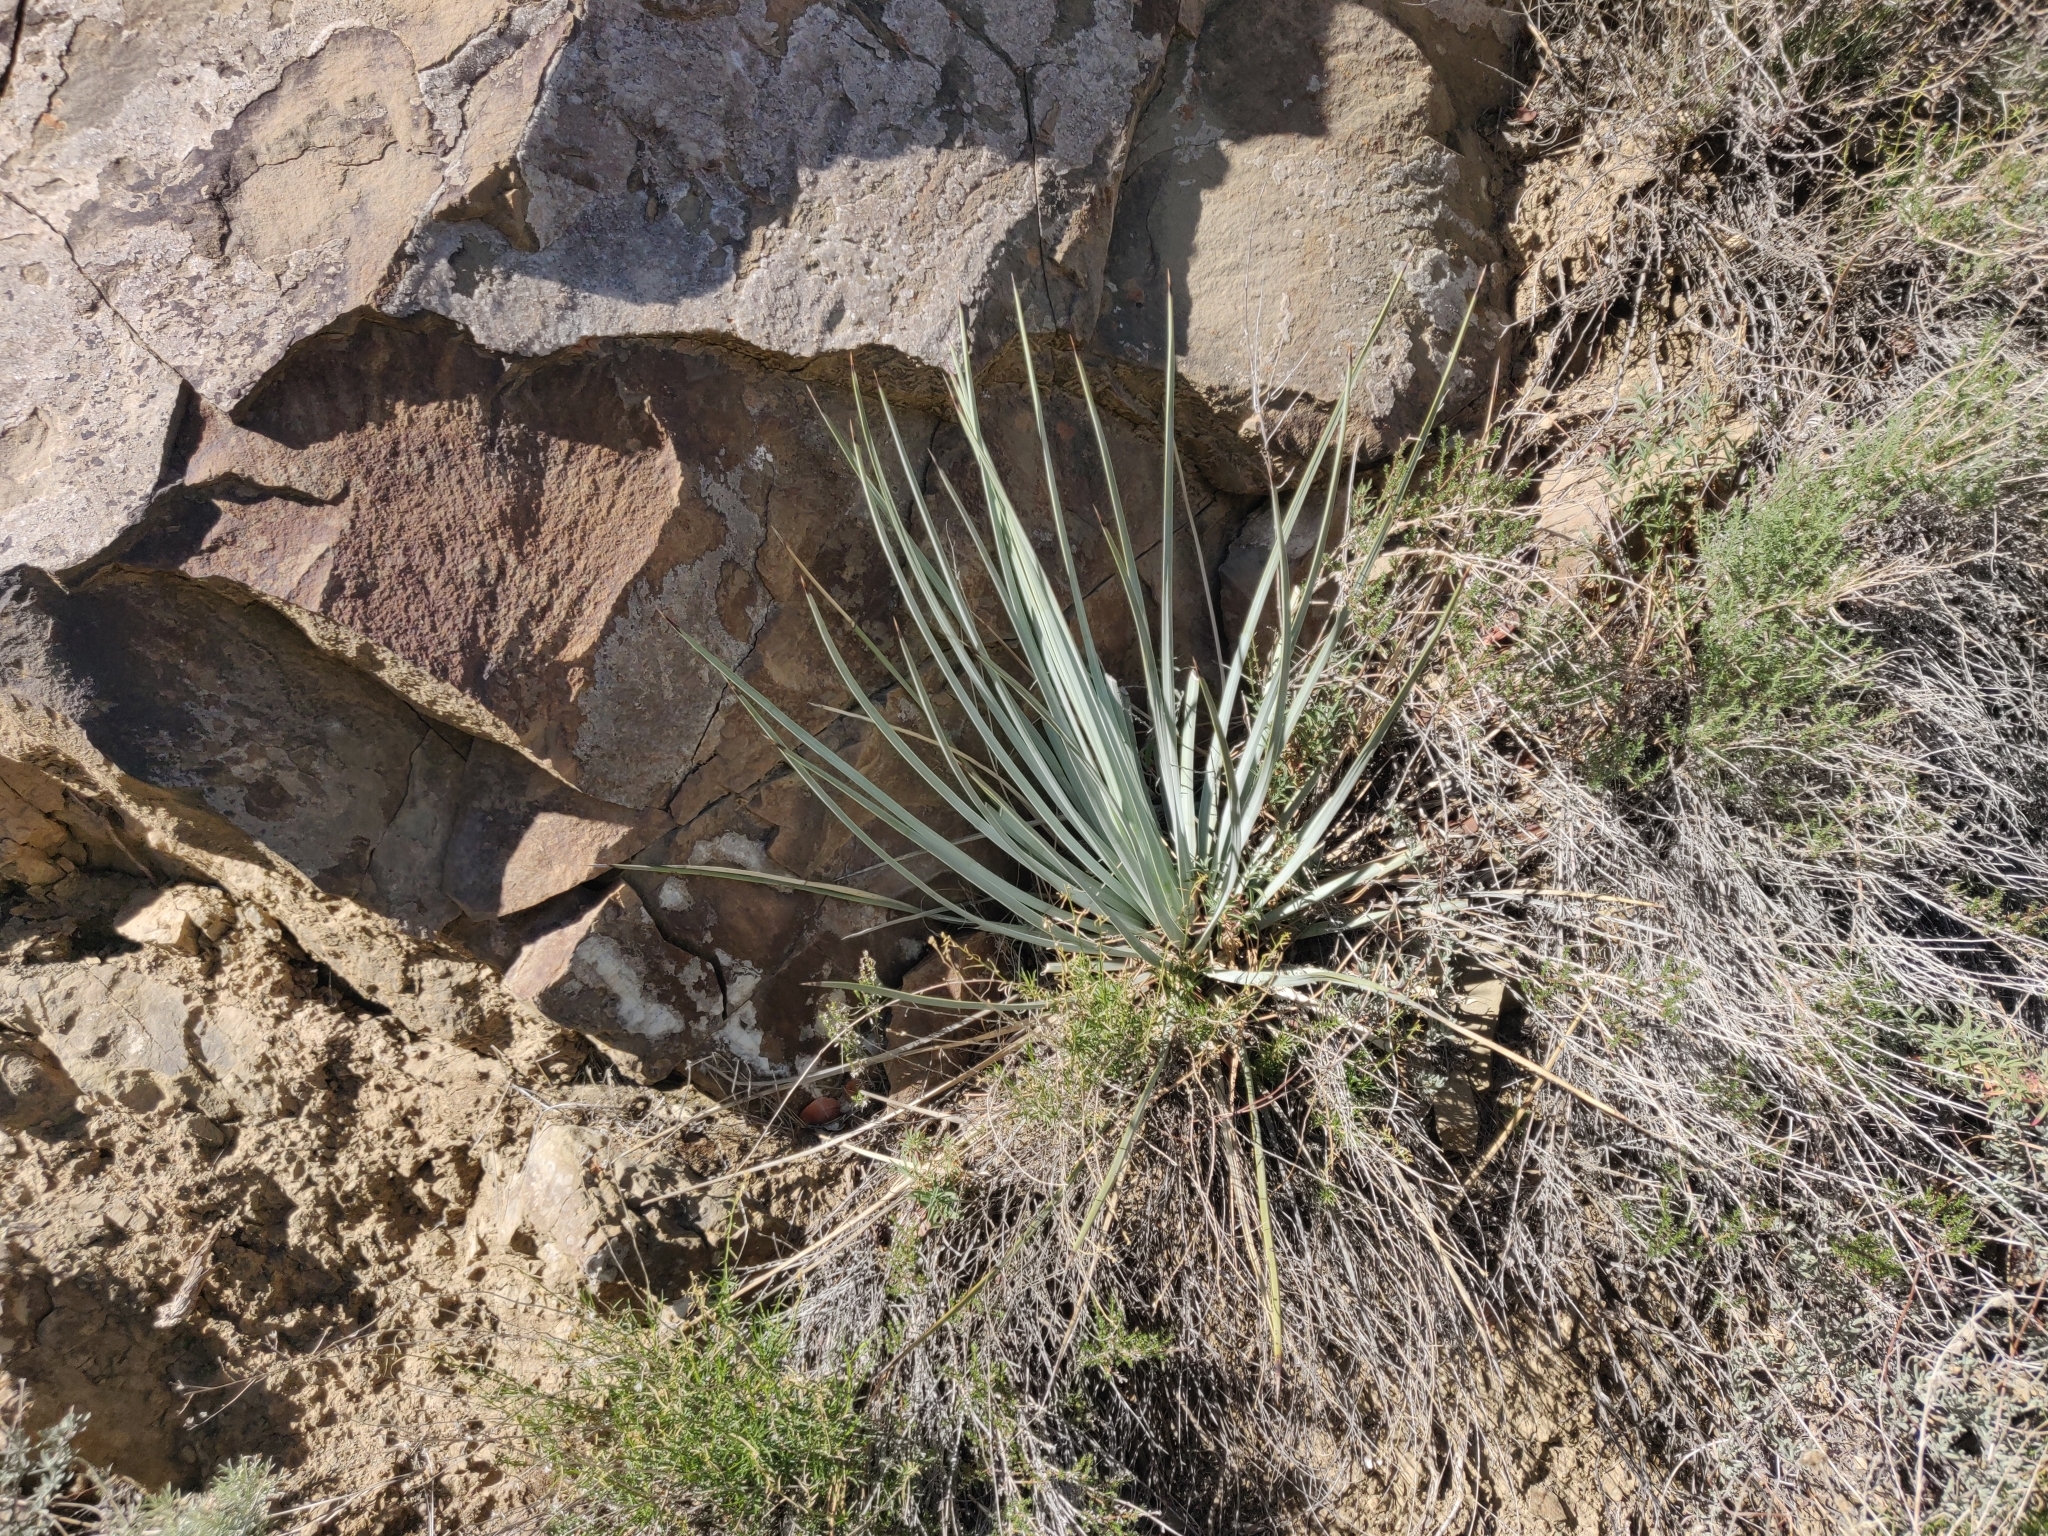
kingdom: Plantae
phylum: Tracheophyta
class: Liliopsida
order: Asparagales
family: Asparagaceae
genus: Hesperoyucca
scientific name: Hesperoyucca whipplei
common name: Our lord's-candle
